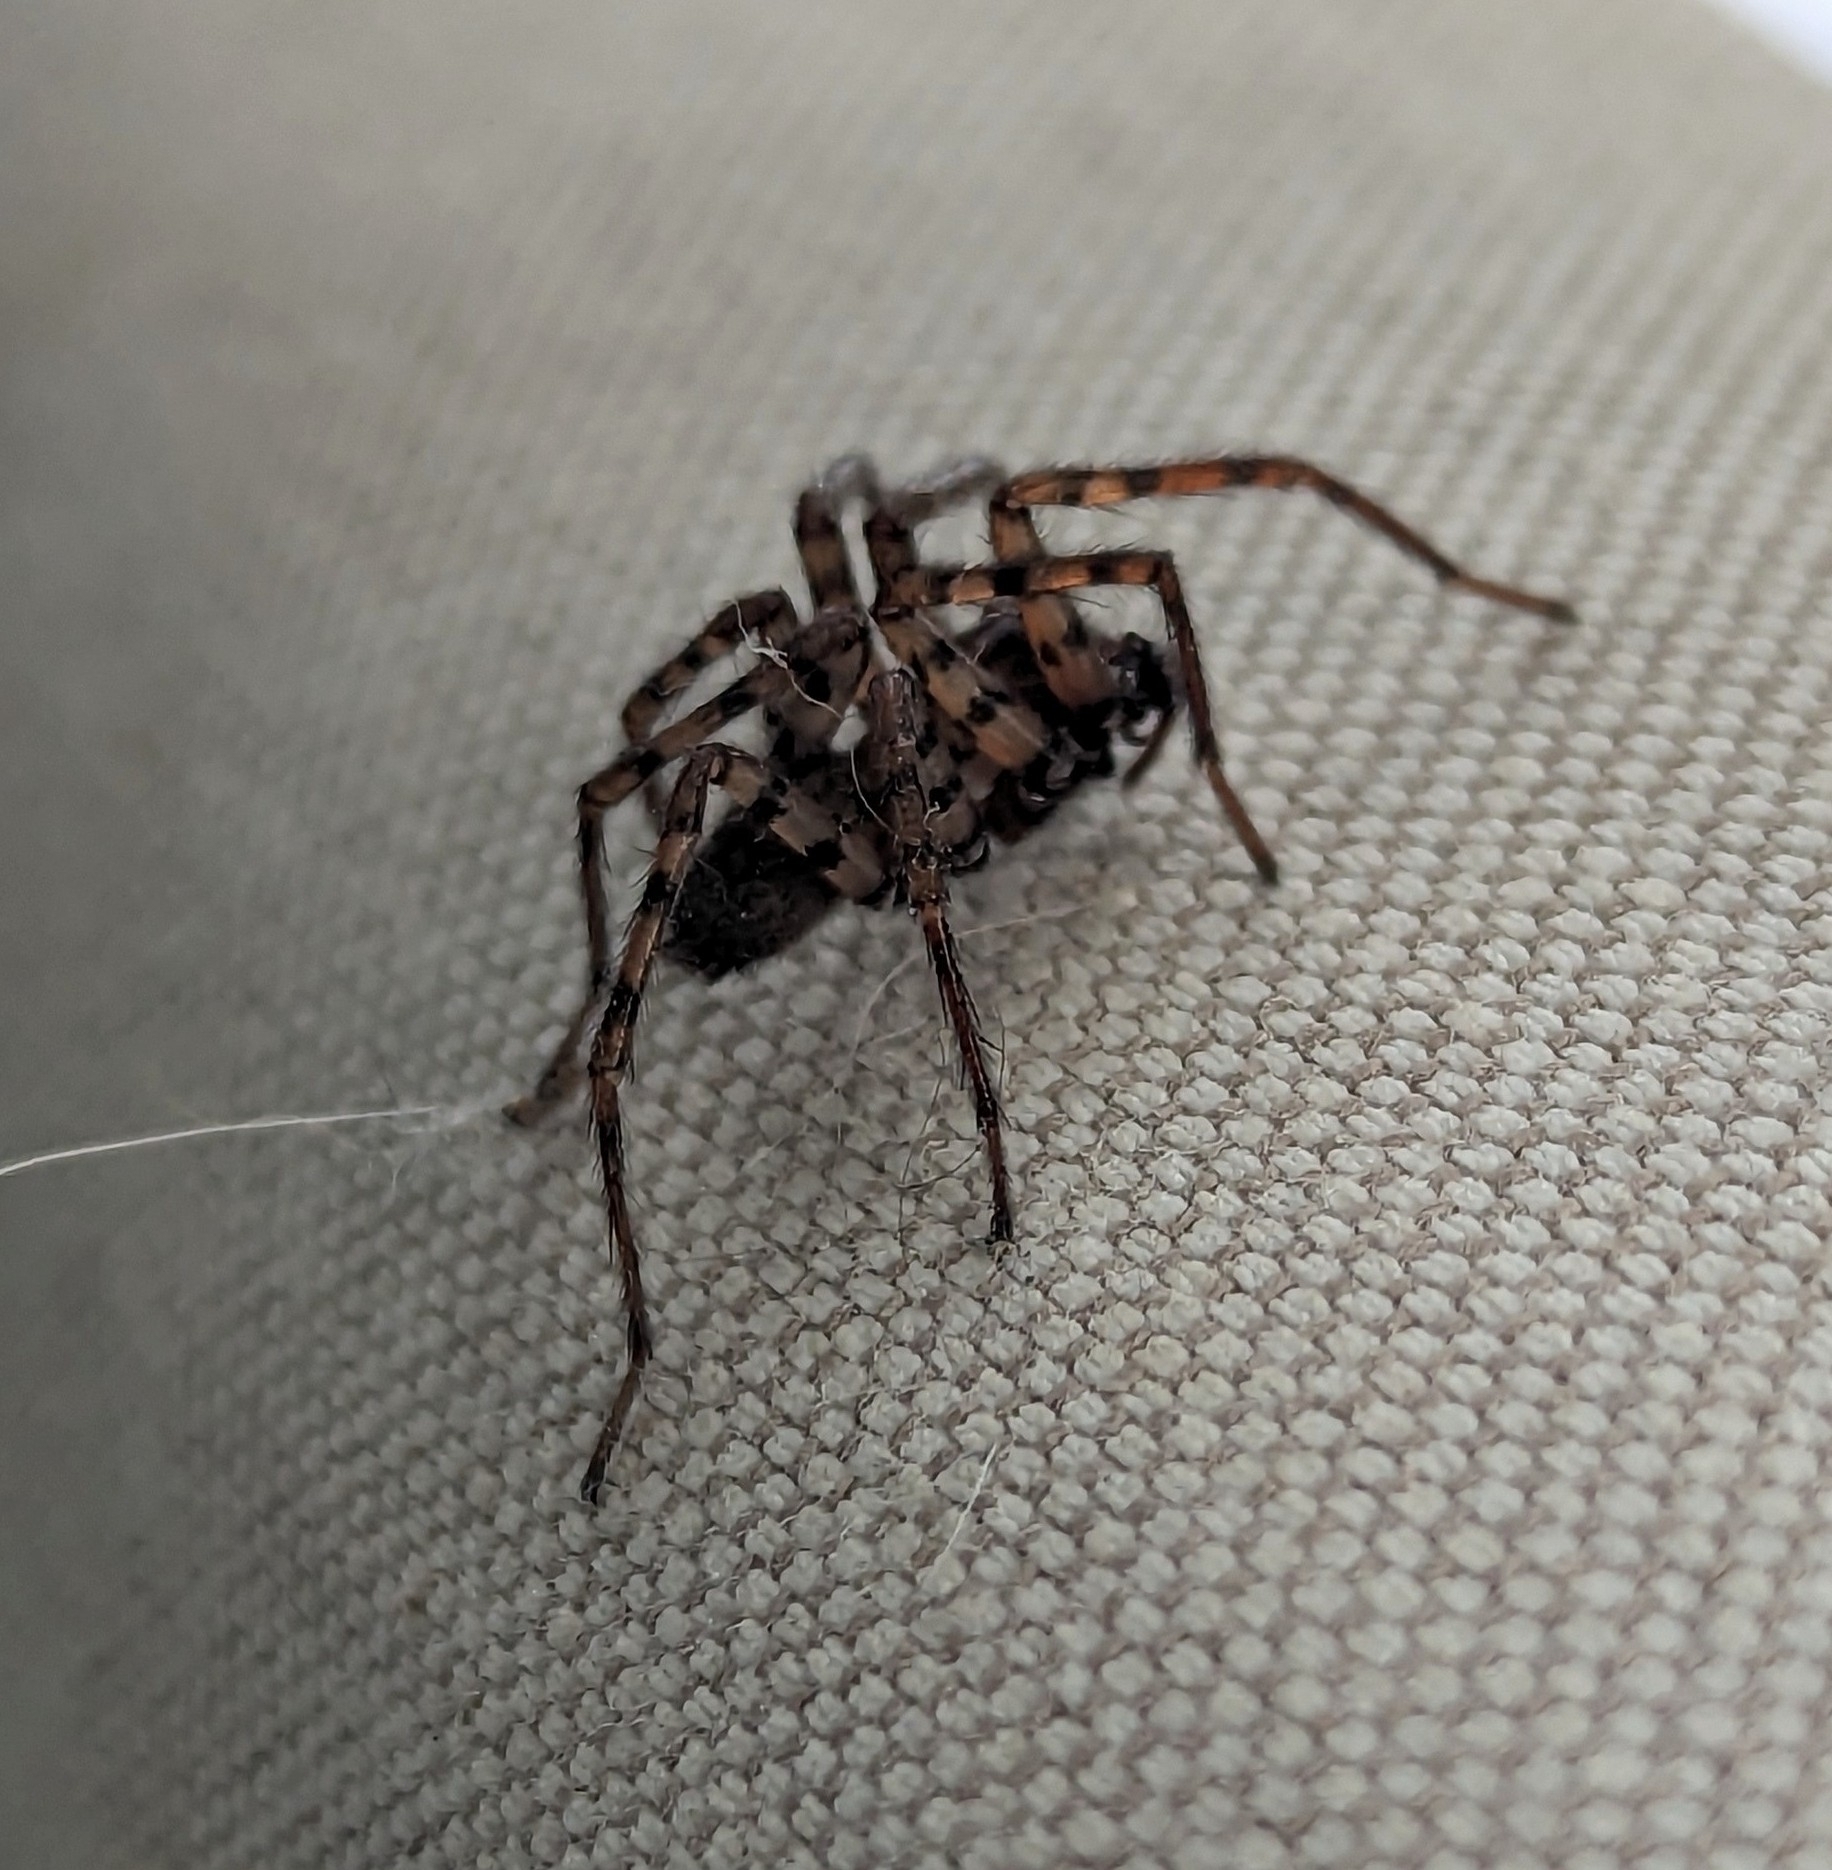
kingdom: Animalia
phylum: Arthropoda
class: Arachnida
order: Araneae
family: Agelenidae
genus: Coras
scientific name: Coras
